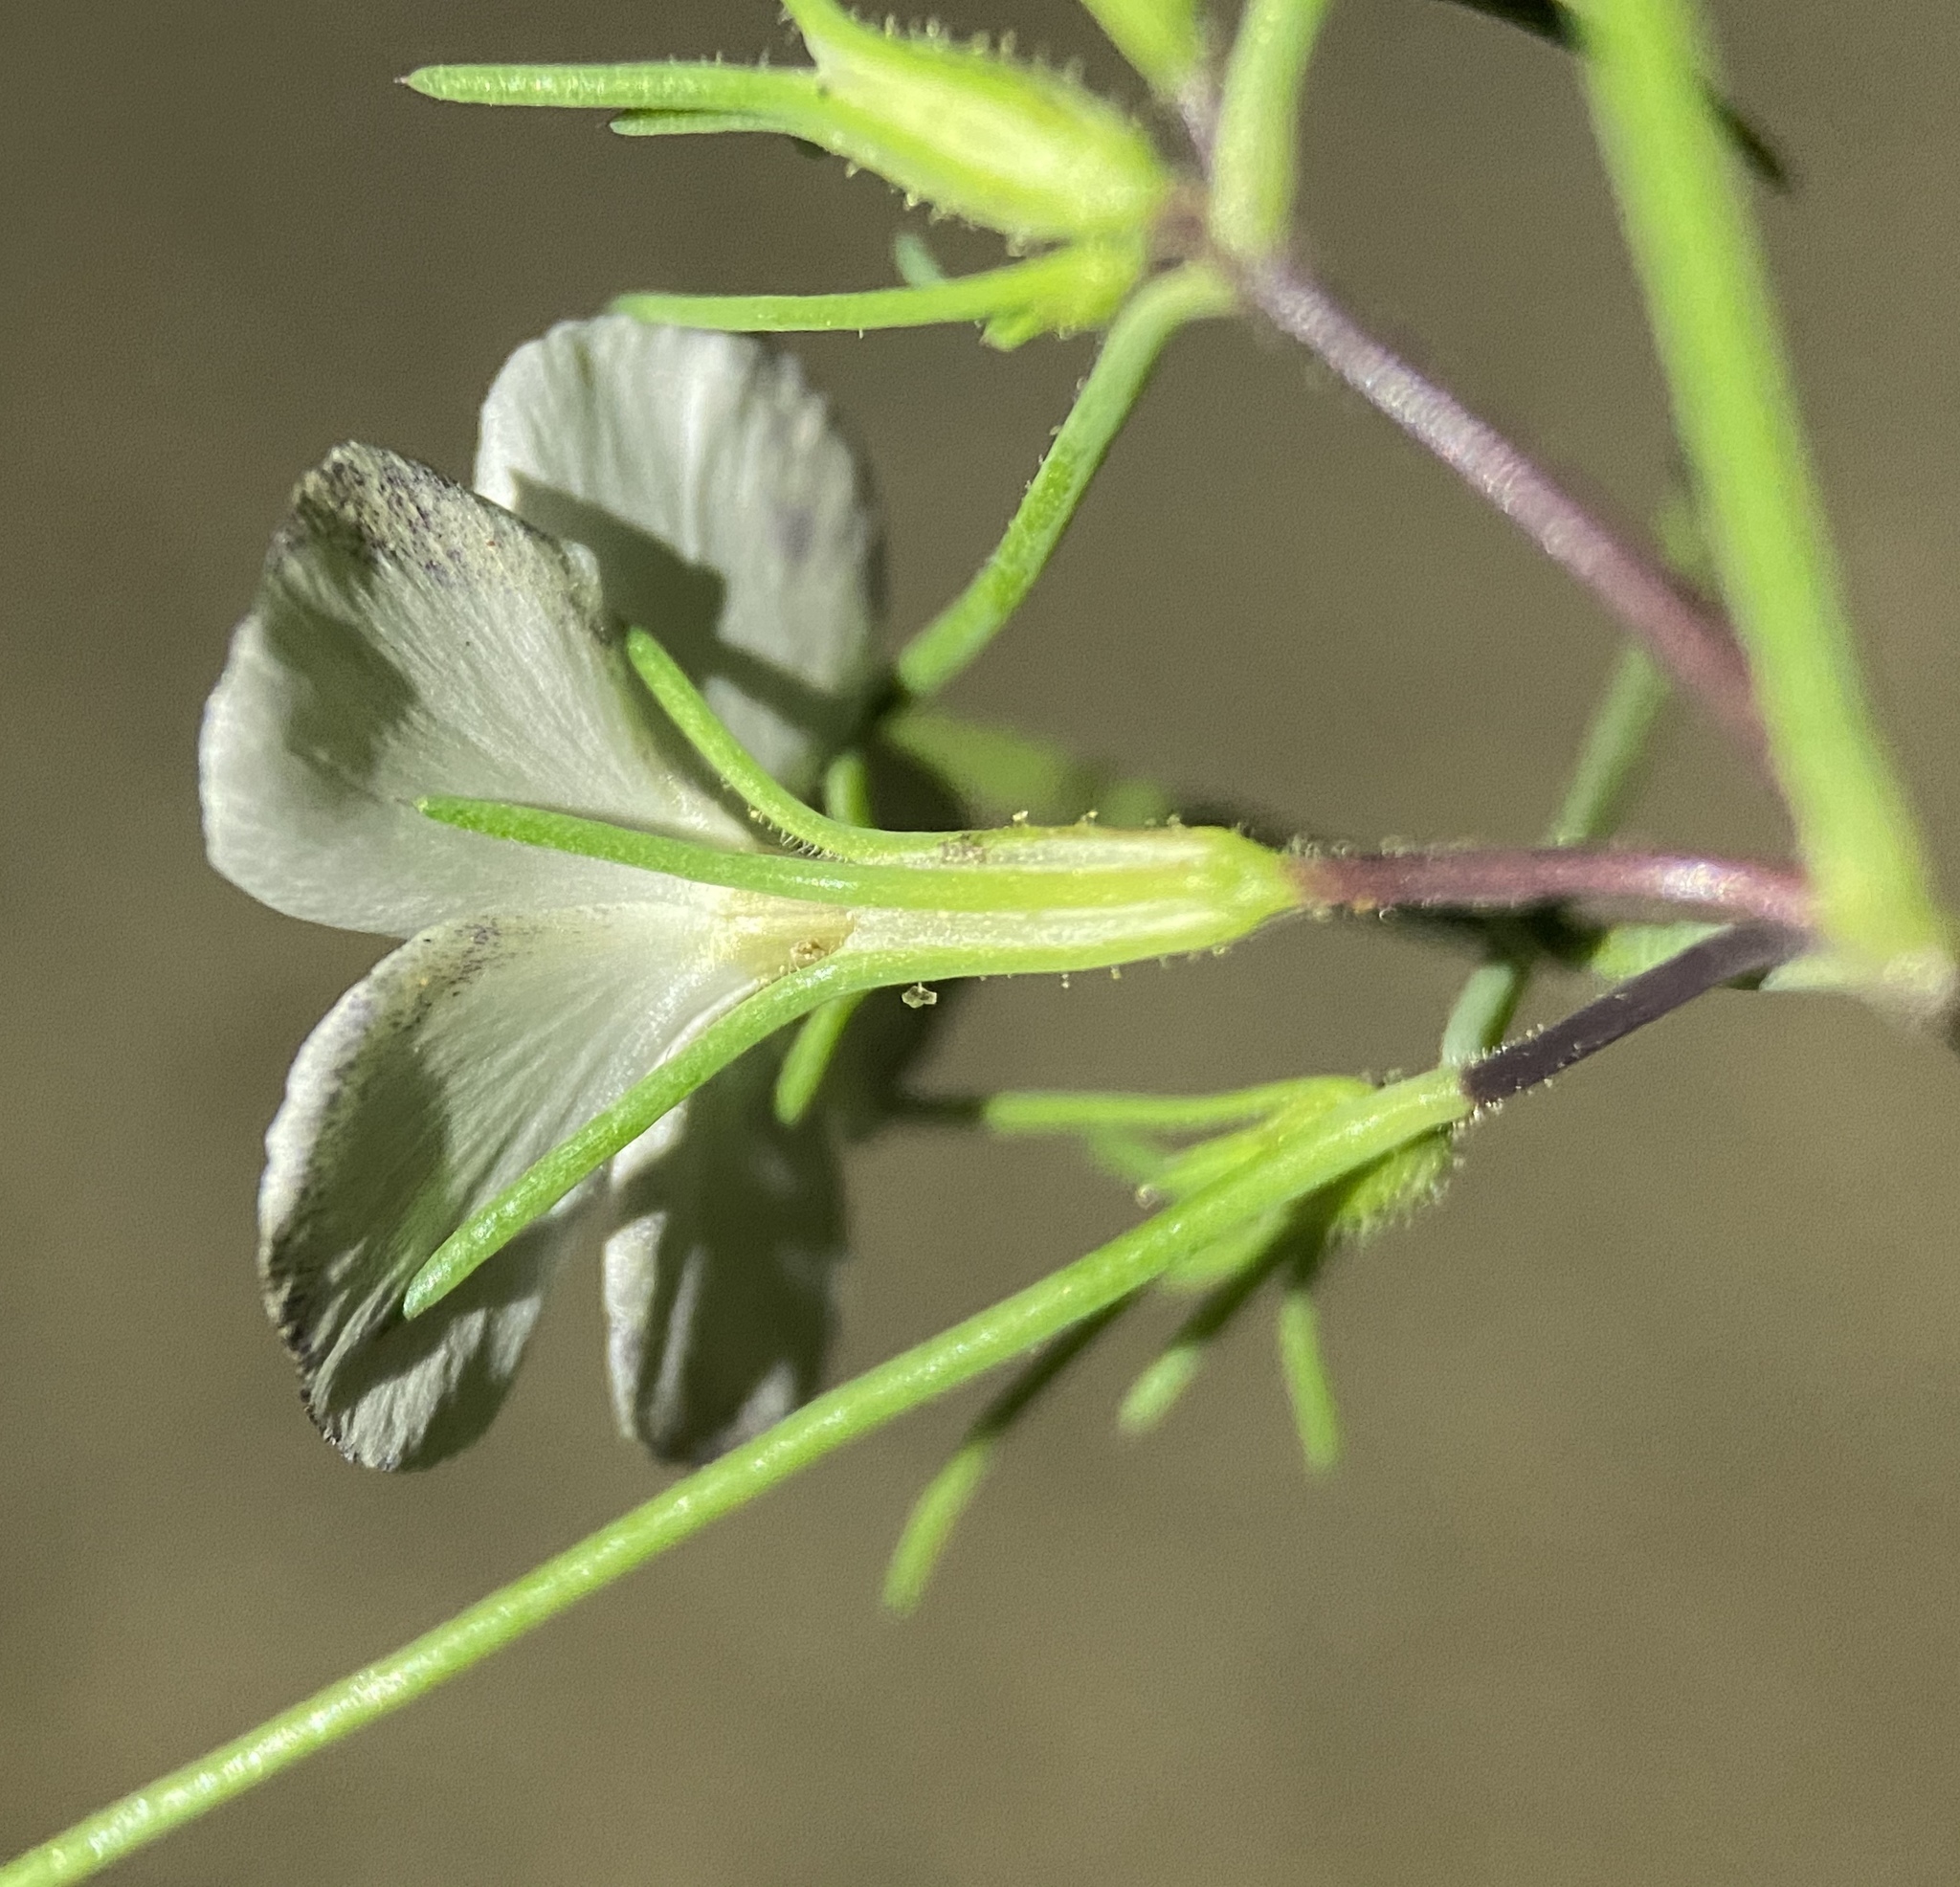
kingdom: Plantae
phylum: Tracheophyta
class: Magnoliopsida
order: Ericales
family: Polemoniaceae
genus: Linanthus
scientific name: Linanthus jonesii
